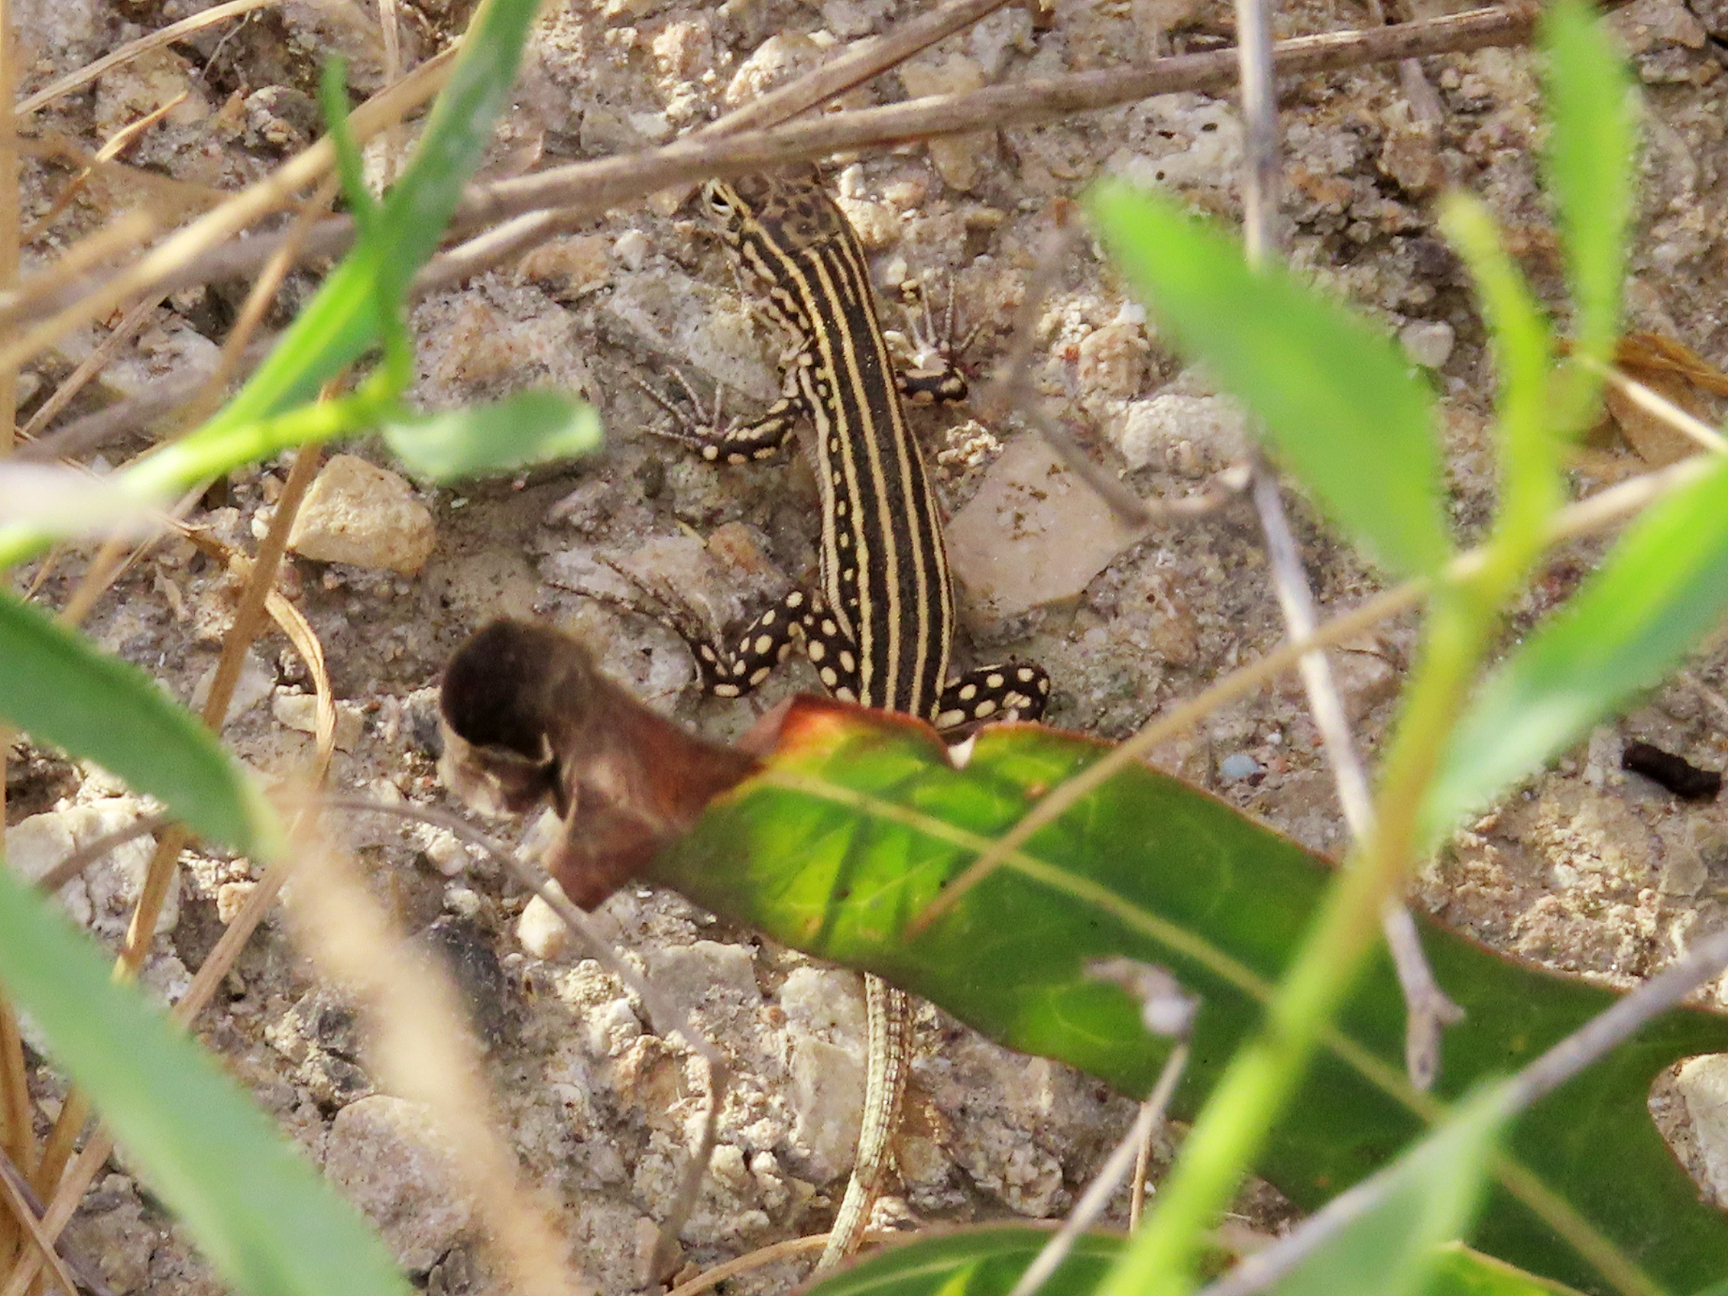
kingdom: Animalia
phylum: Chordata
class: Squamata
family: Lacertidae
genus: Eremias
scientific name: Eremias velox
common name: Central asian racerunner
